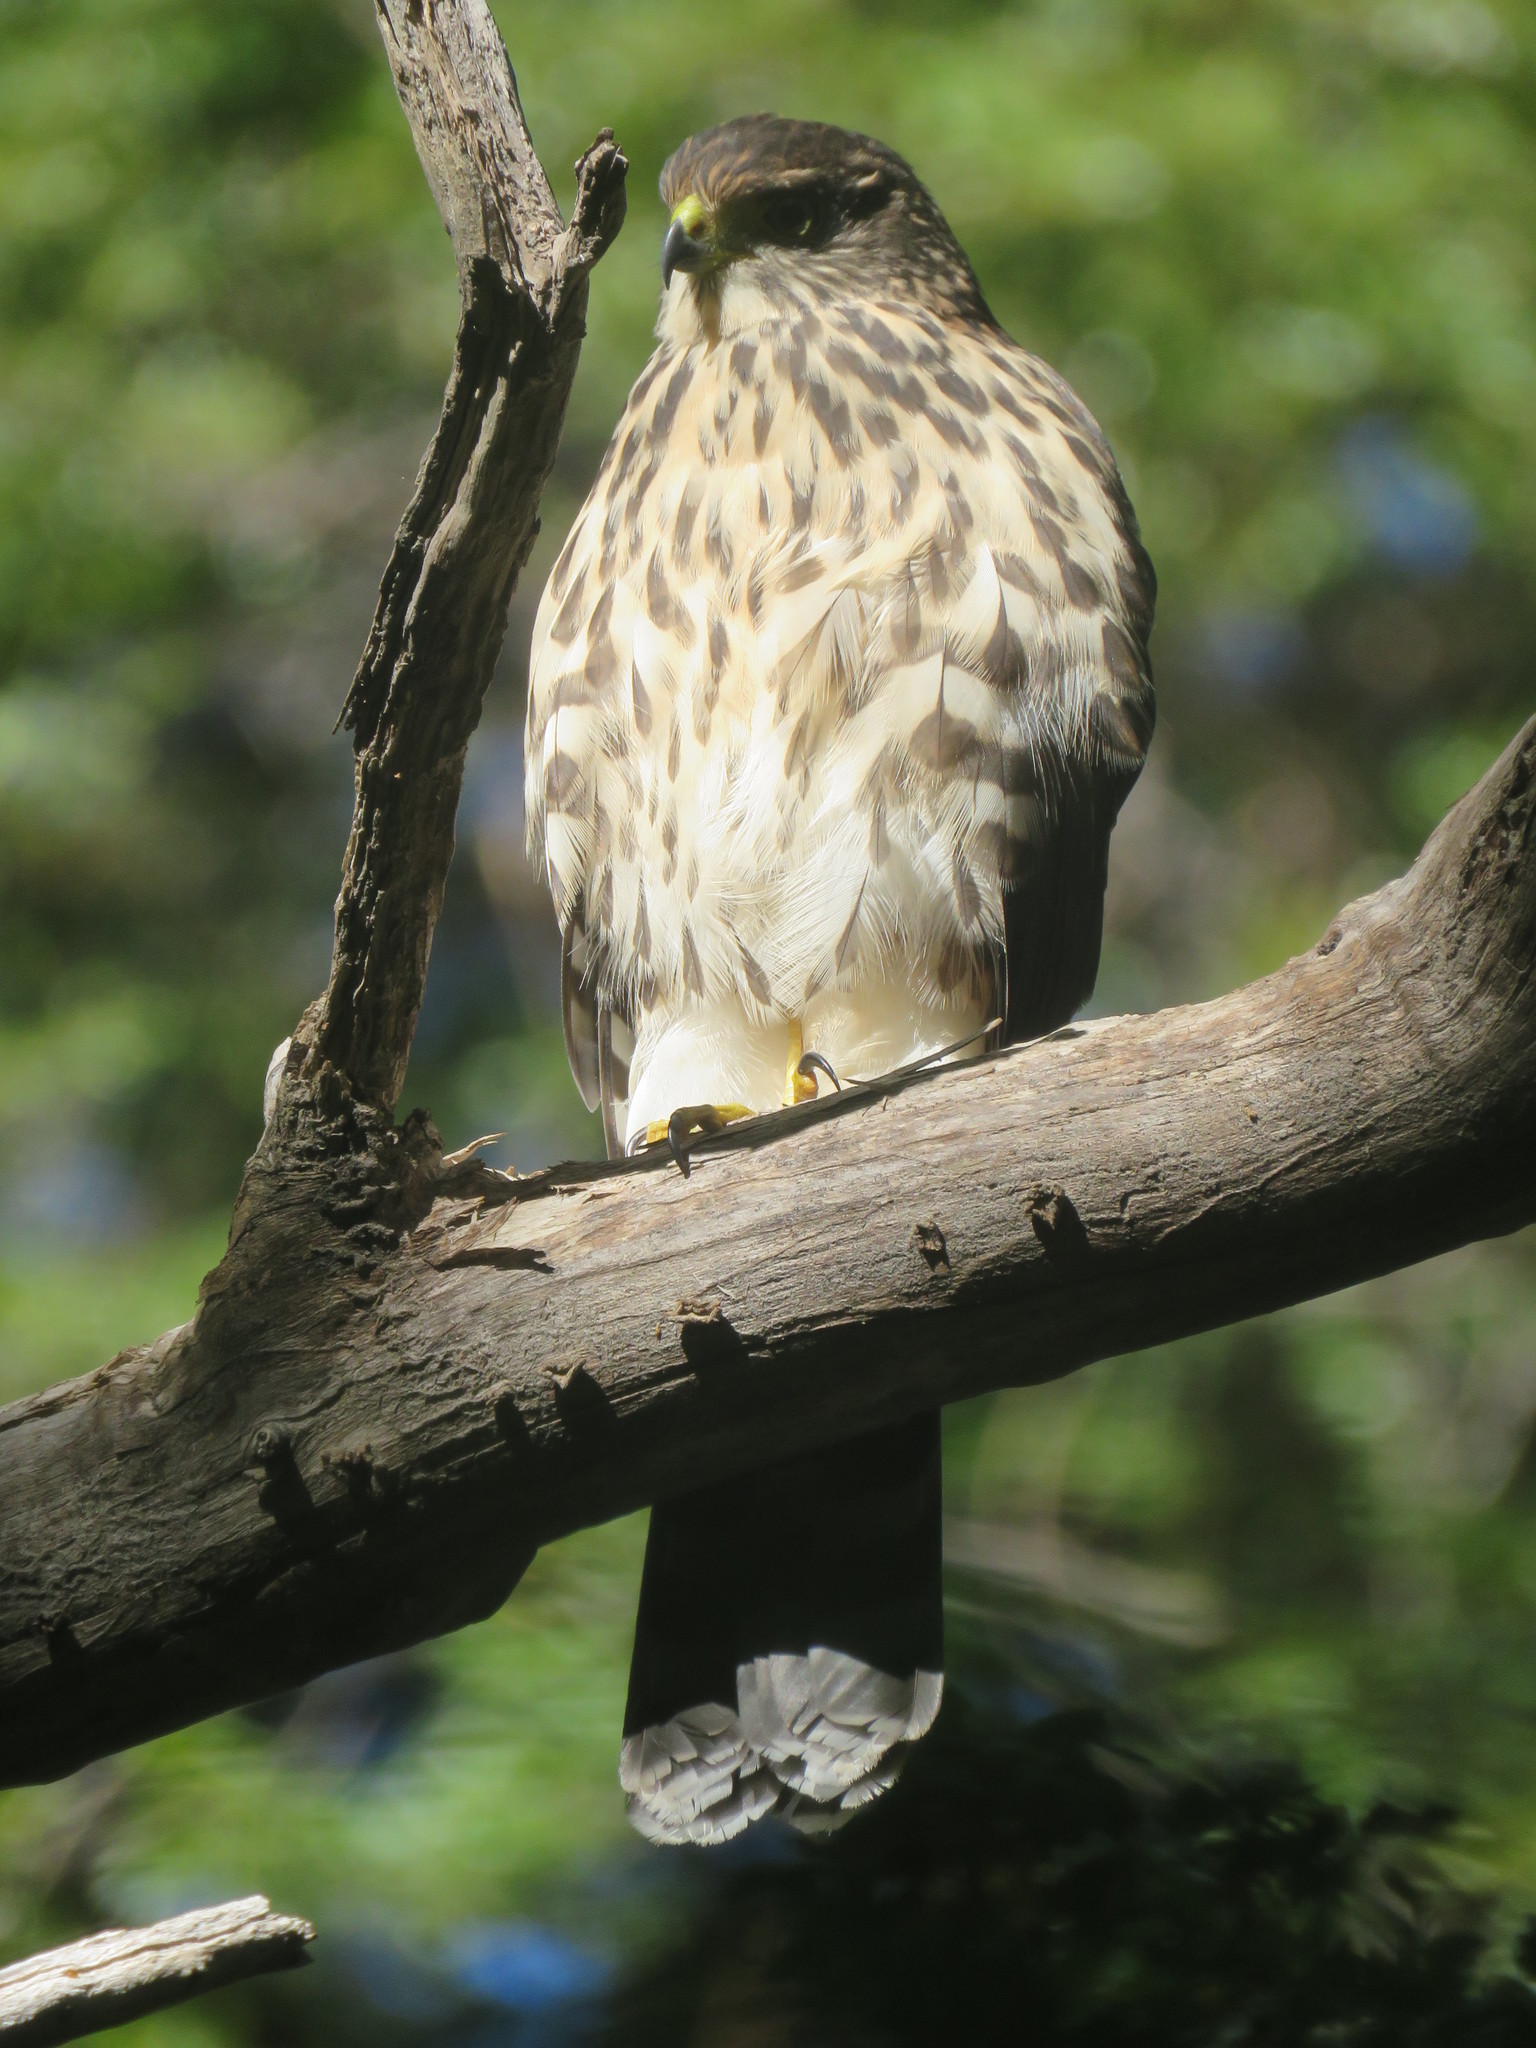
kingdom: Animalia
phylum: Chordata
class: Aves
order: Accipitriformes
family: Accipitridae
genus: Accipiter
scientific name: Accipiter chilensis
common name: Chilean hawk
